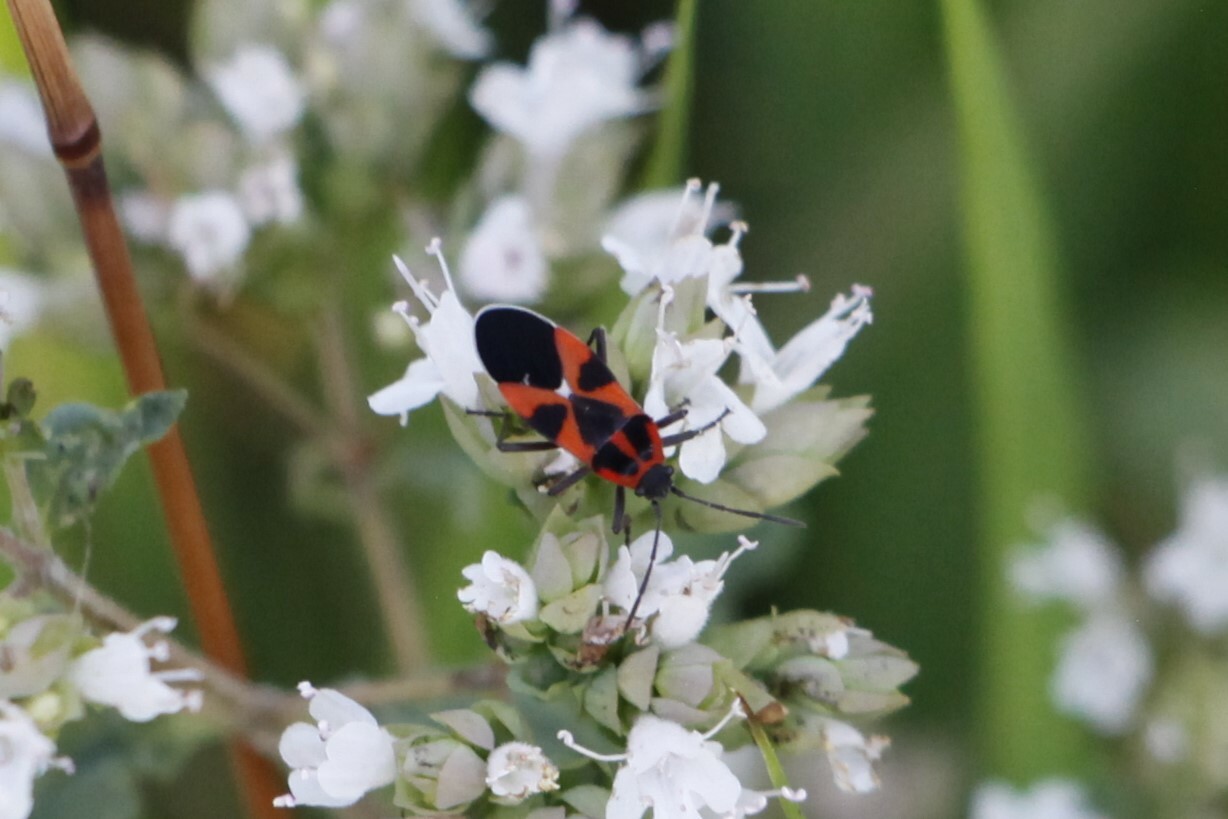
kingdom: Animalia
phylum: Arthropoda
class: Insecta
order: Hemiptera
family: Lygaeidae
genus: Tropidothorax
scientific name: Tropidothorax leucopterus
